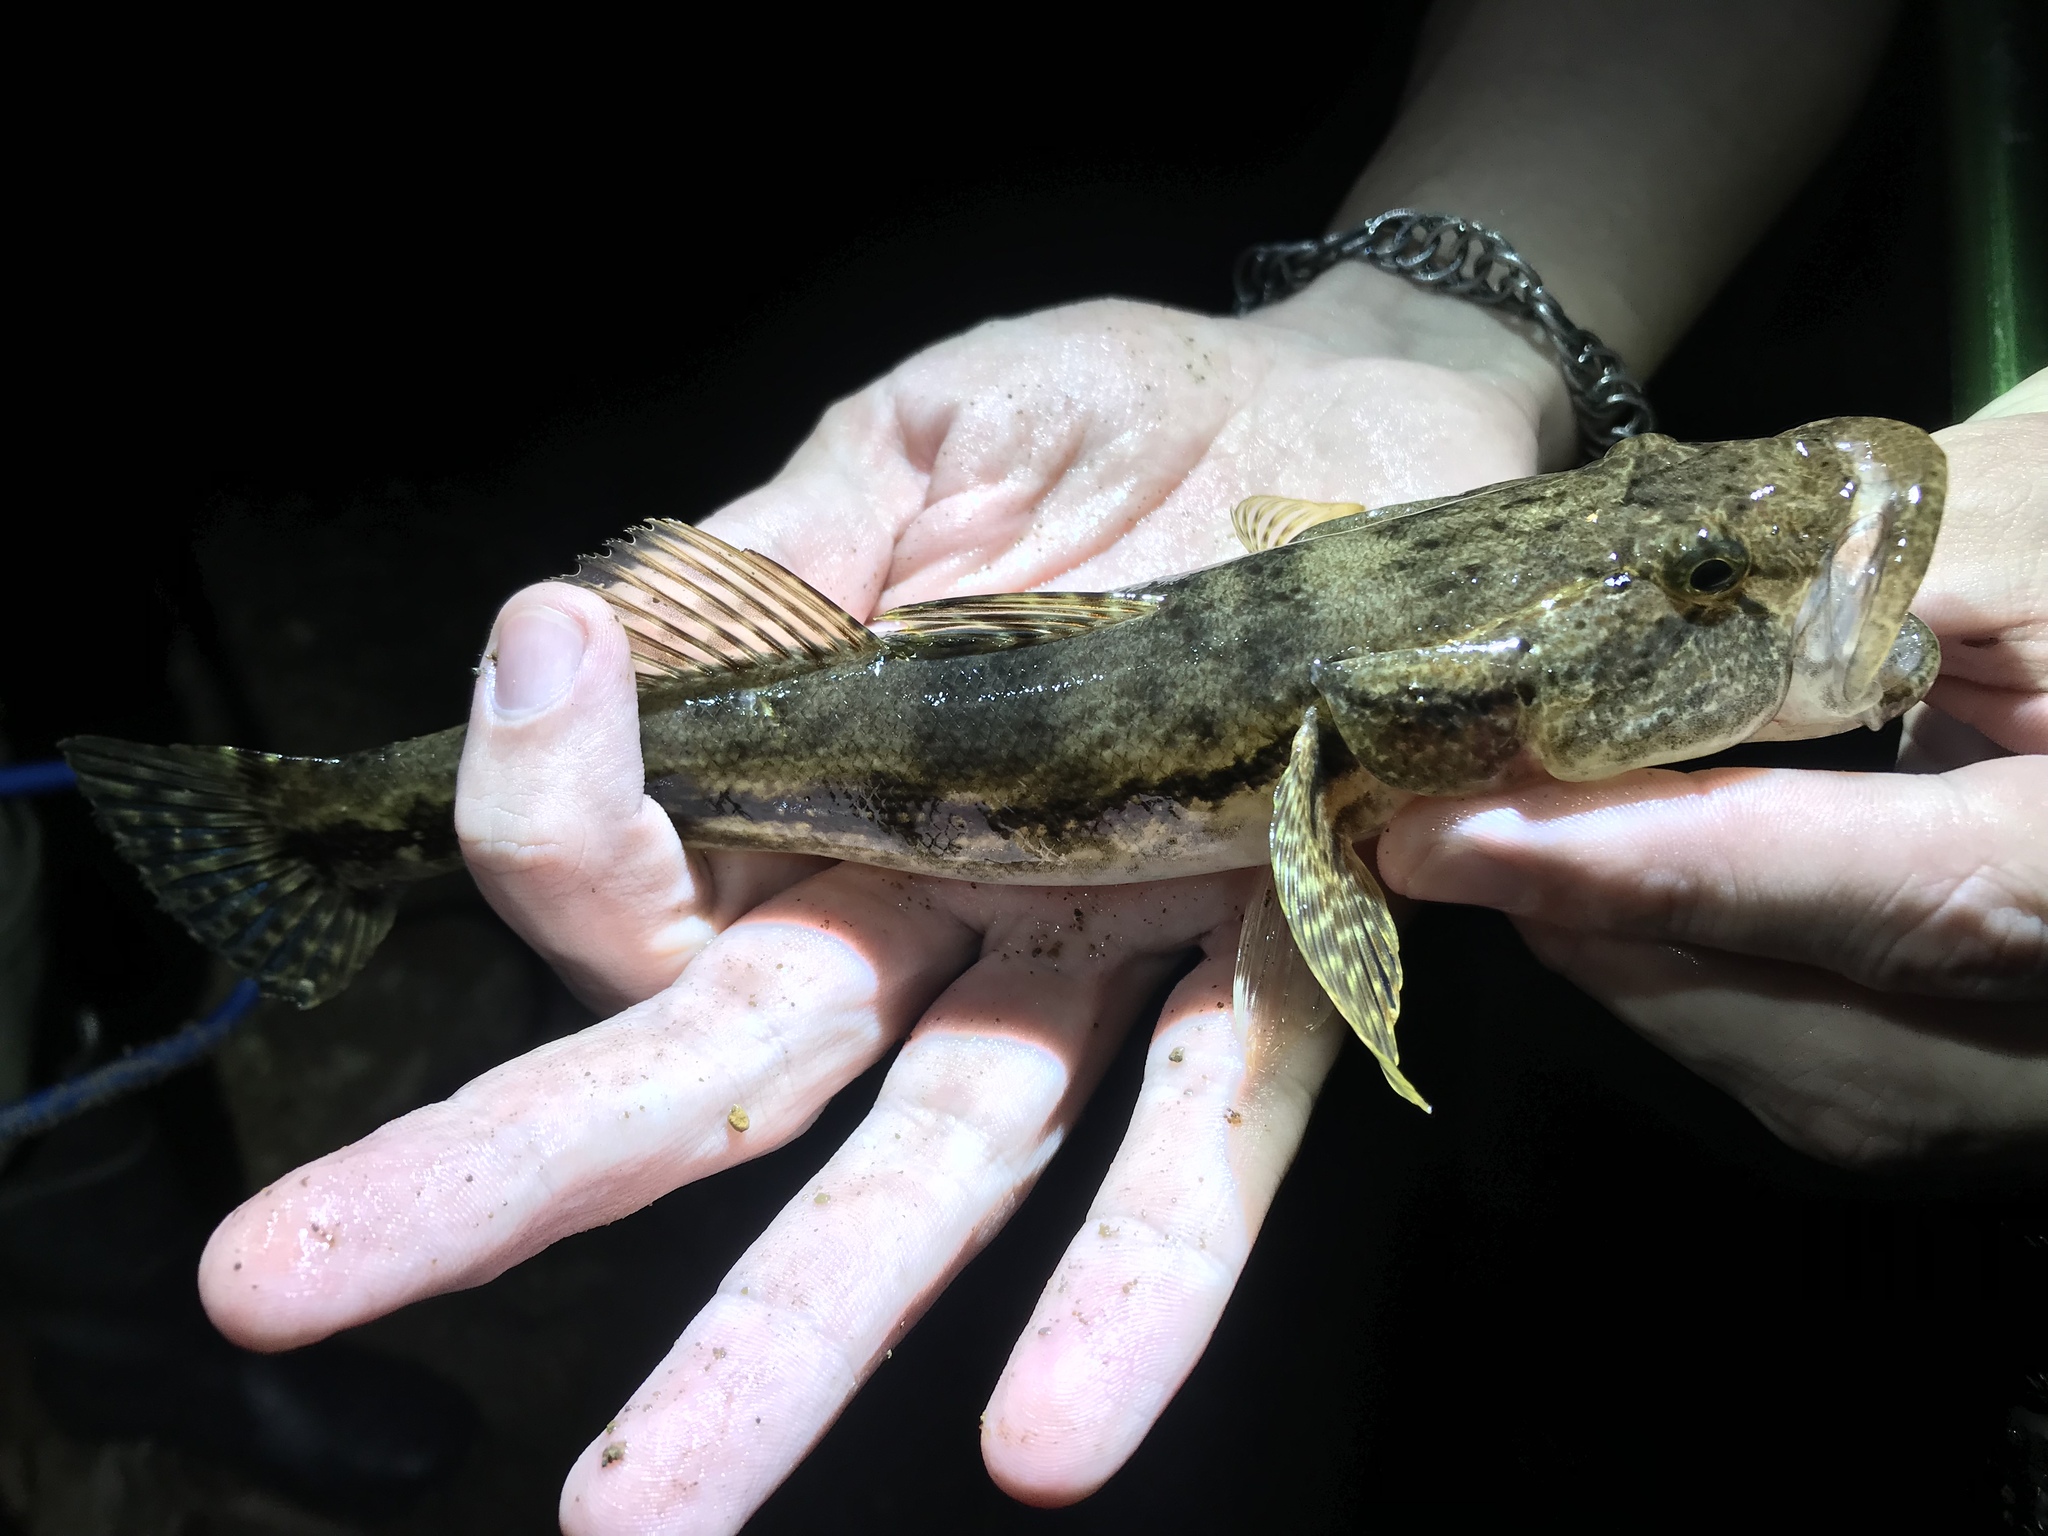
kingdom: Animalia
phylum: Chordata
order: Perciformes
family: Eleotridae
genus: Gobiomorus
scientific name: Gobiomorus dormitor
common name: Bigmouth sleeper
